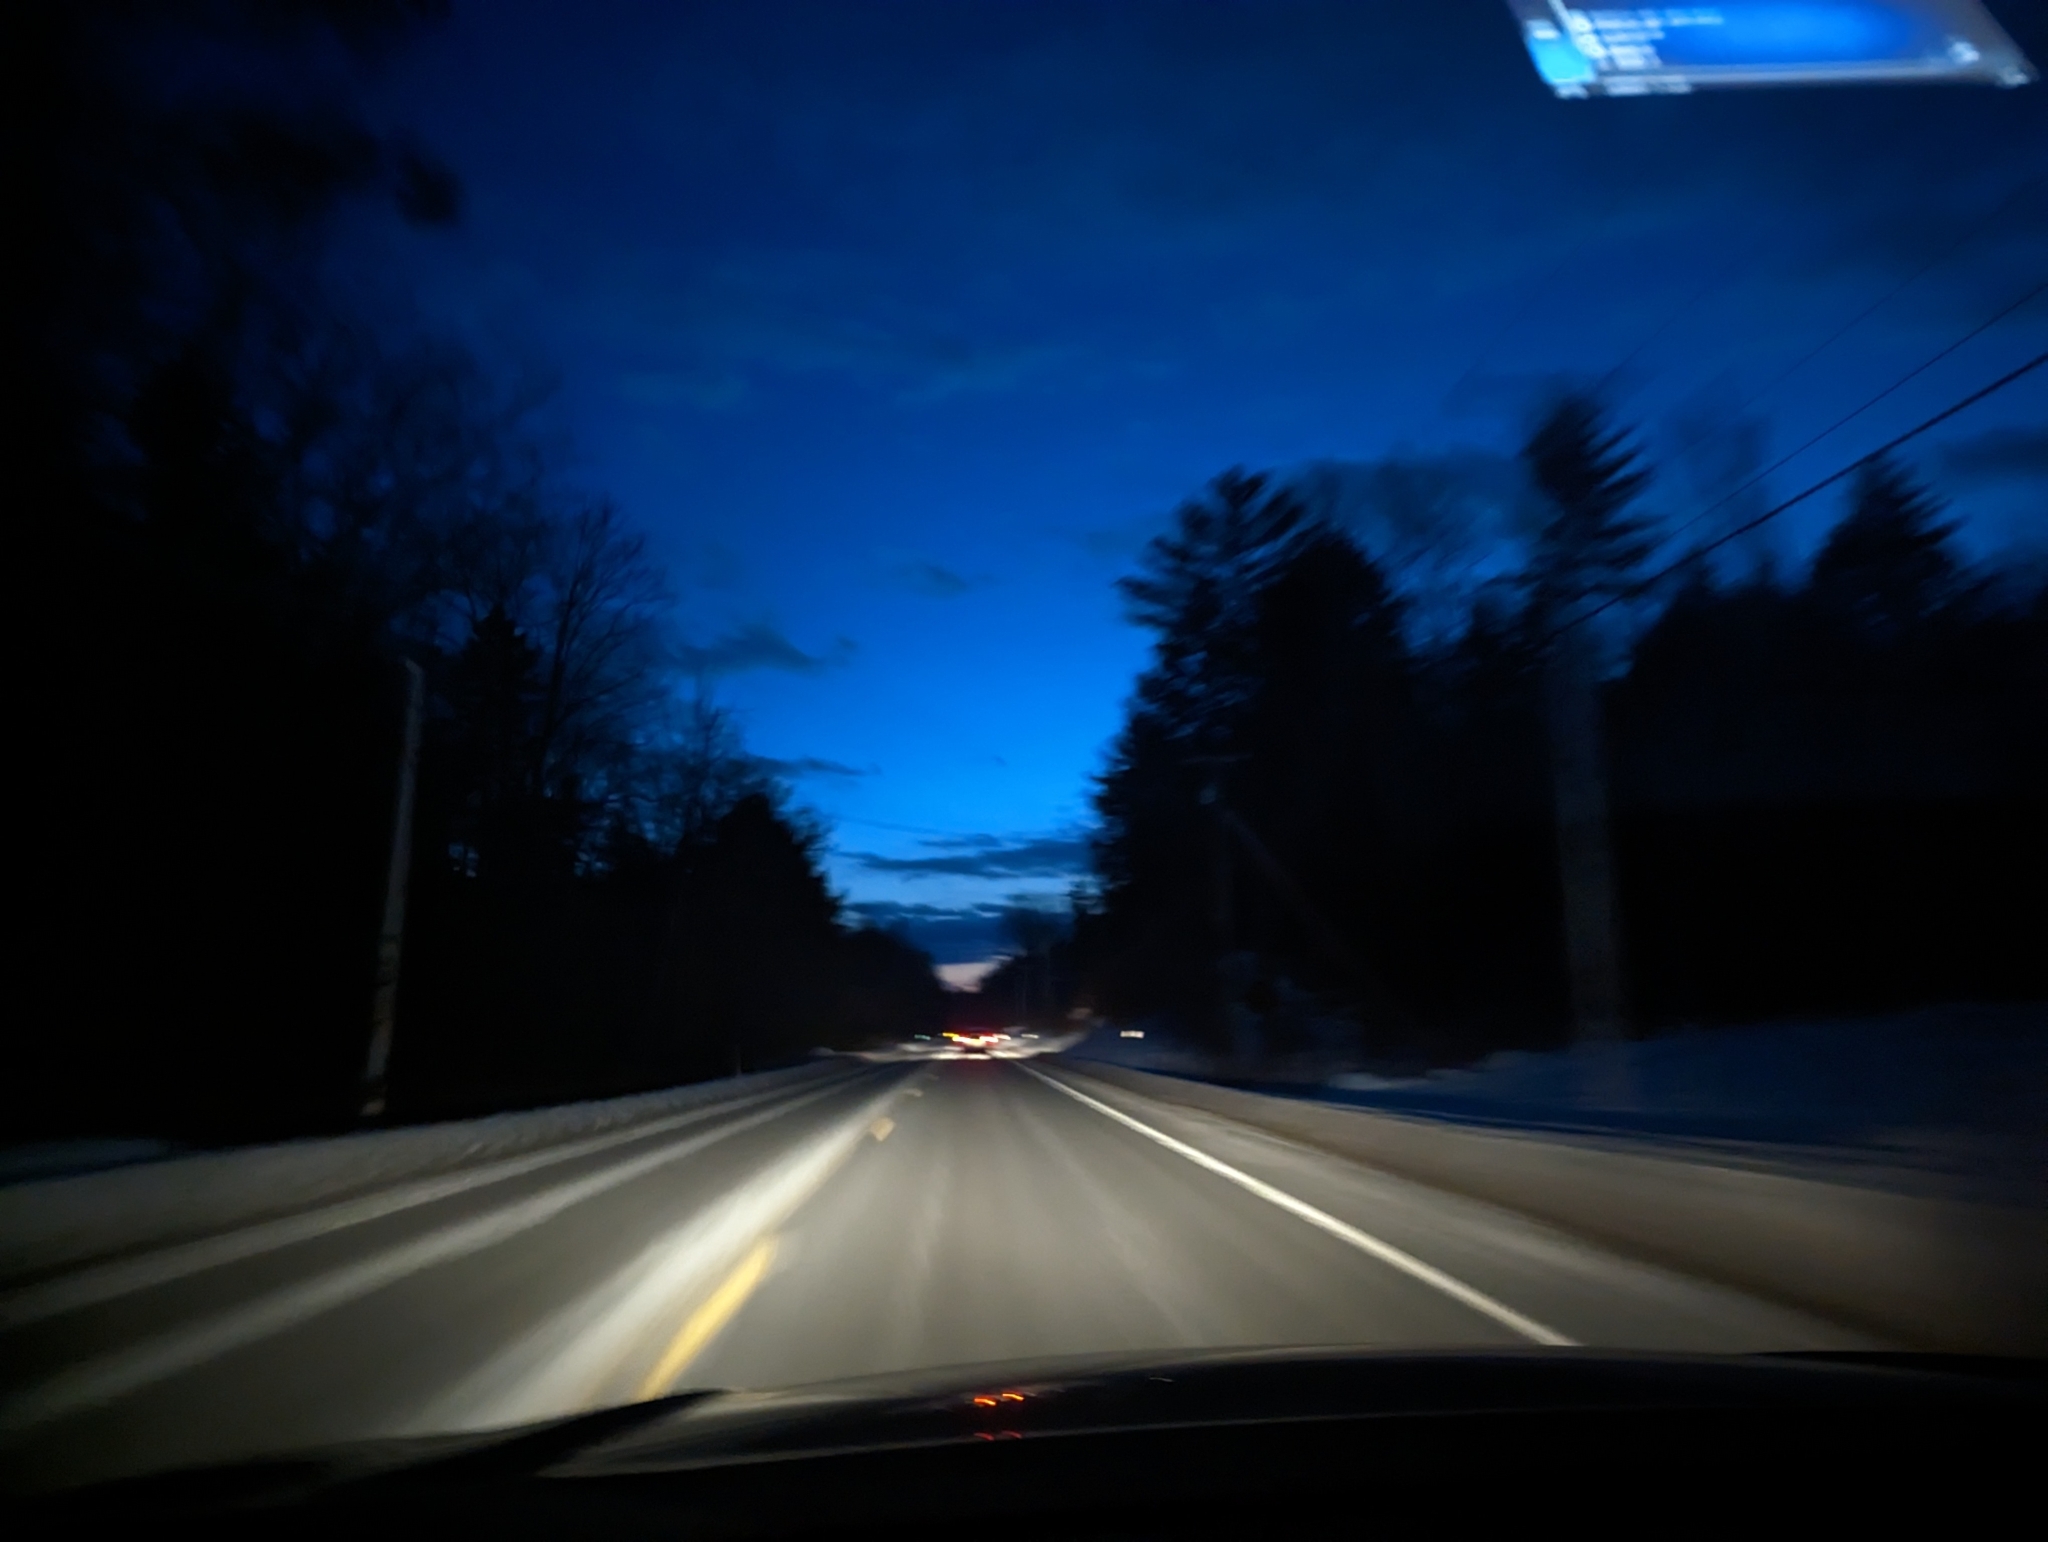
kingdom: Plantae
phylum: Tracheophyta
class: Pinopsida
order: Pinales
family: Pinaceae
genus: Pinus
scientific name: Pinus strobus
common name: Weymouth pine
